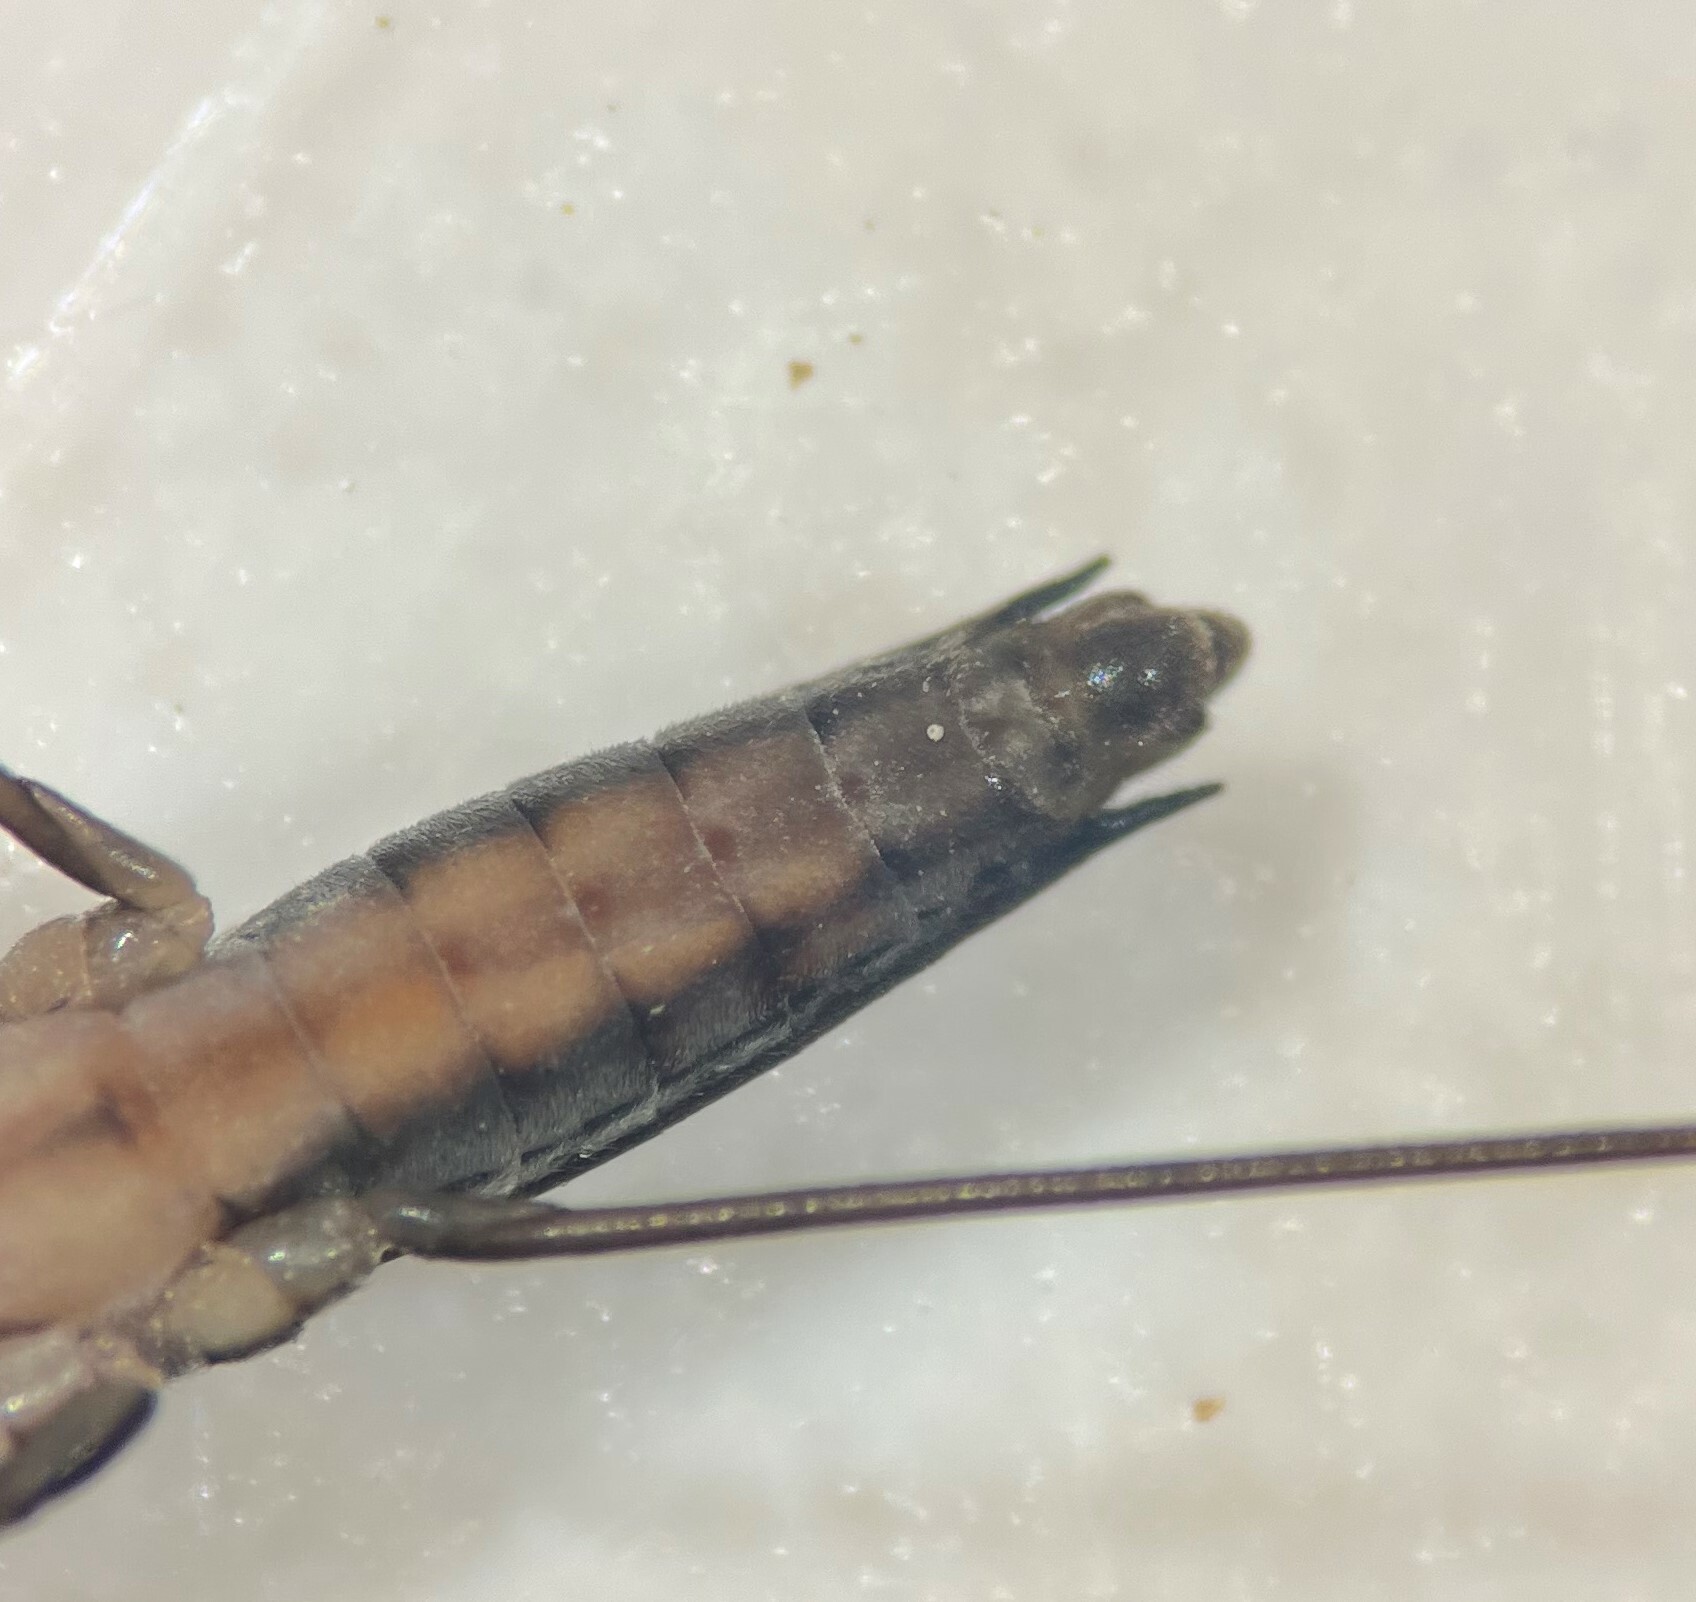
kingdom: Animalia
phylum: Arthropoda
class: Insecta
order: Hemiptera
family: Gerridae
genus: Limnoporus
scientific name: Limnoporus canaliculatus
